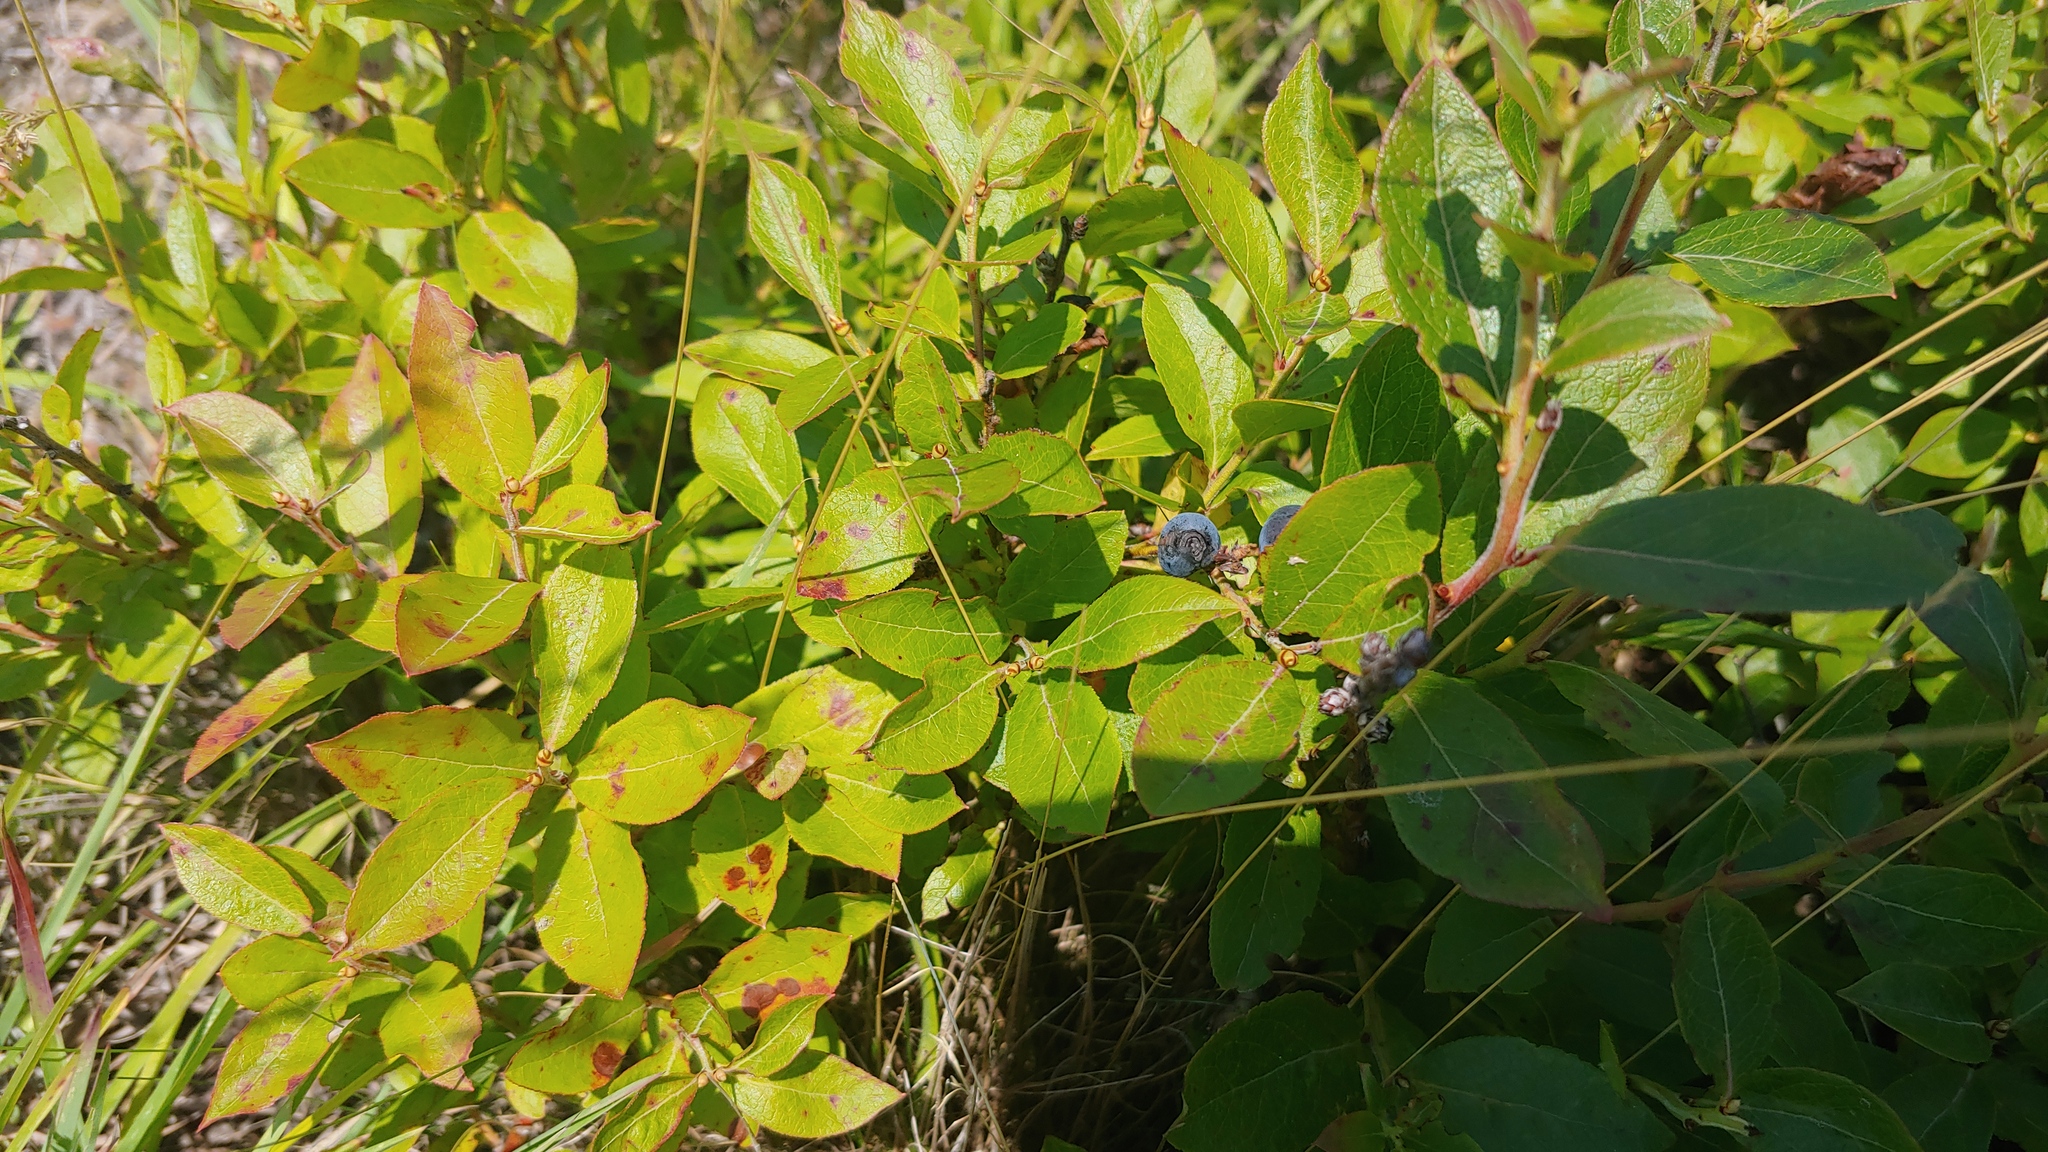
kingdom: Plantae
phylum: Tracheophyta
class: Magnoliopsida
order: Ericales
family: Ericaceae
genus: Vaccinium
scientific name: Vaccinium angustifolium
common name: Early lowbush blueberry
